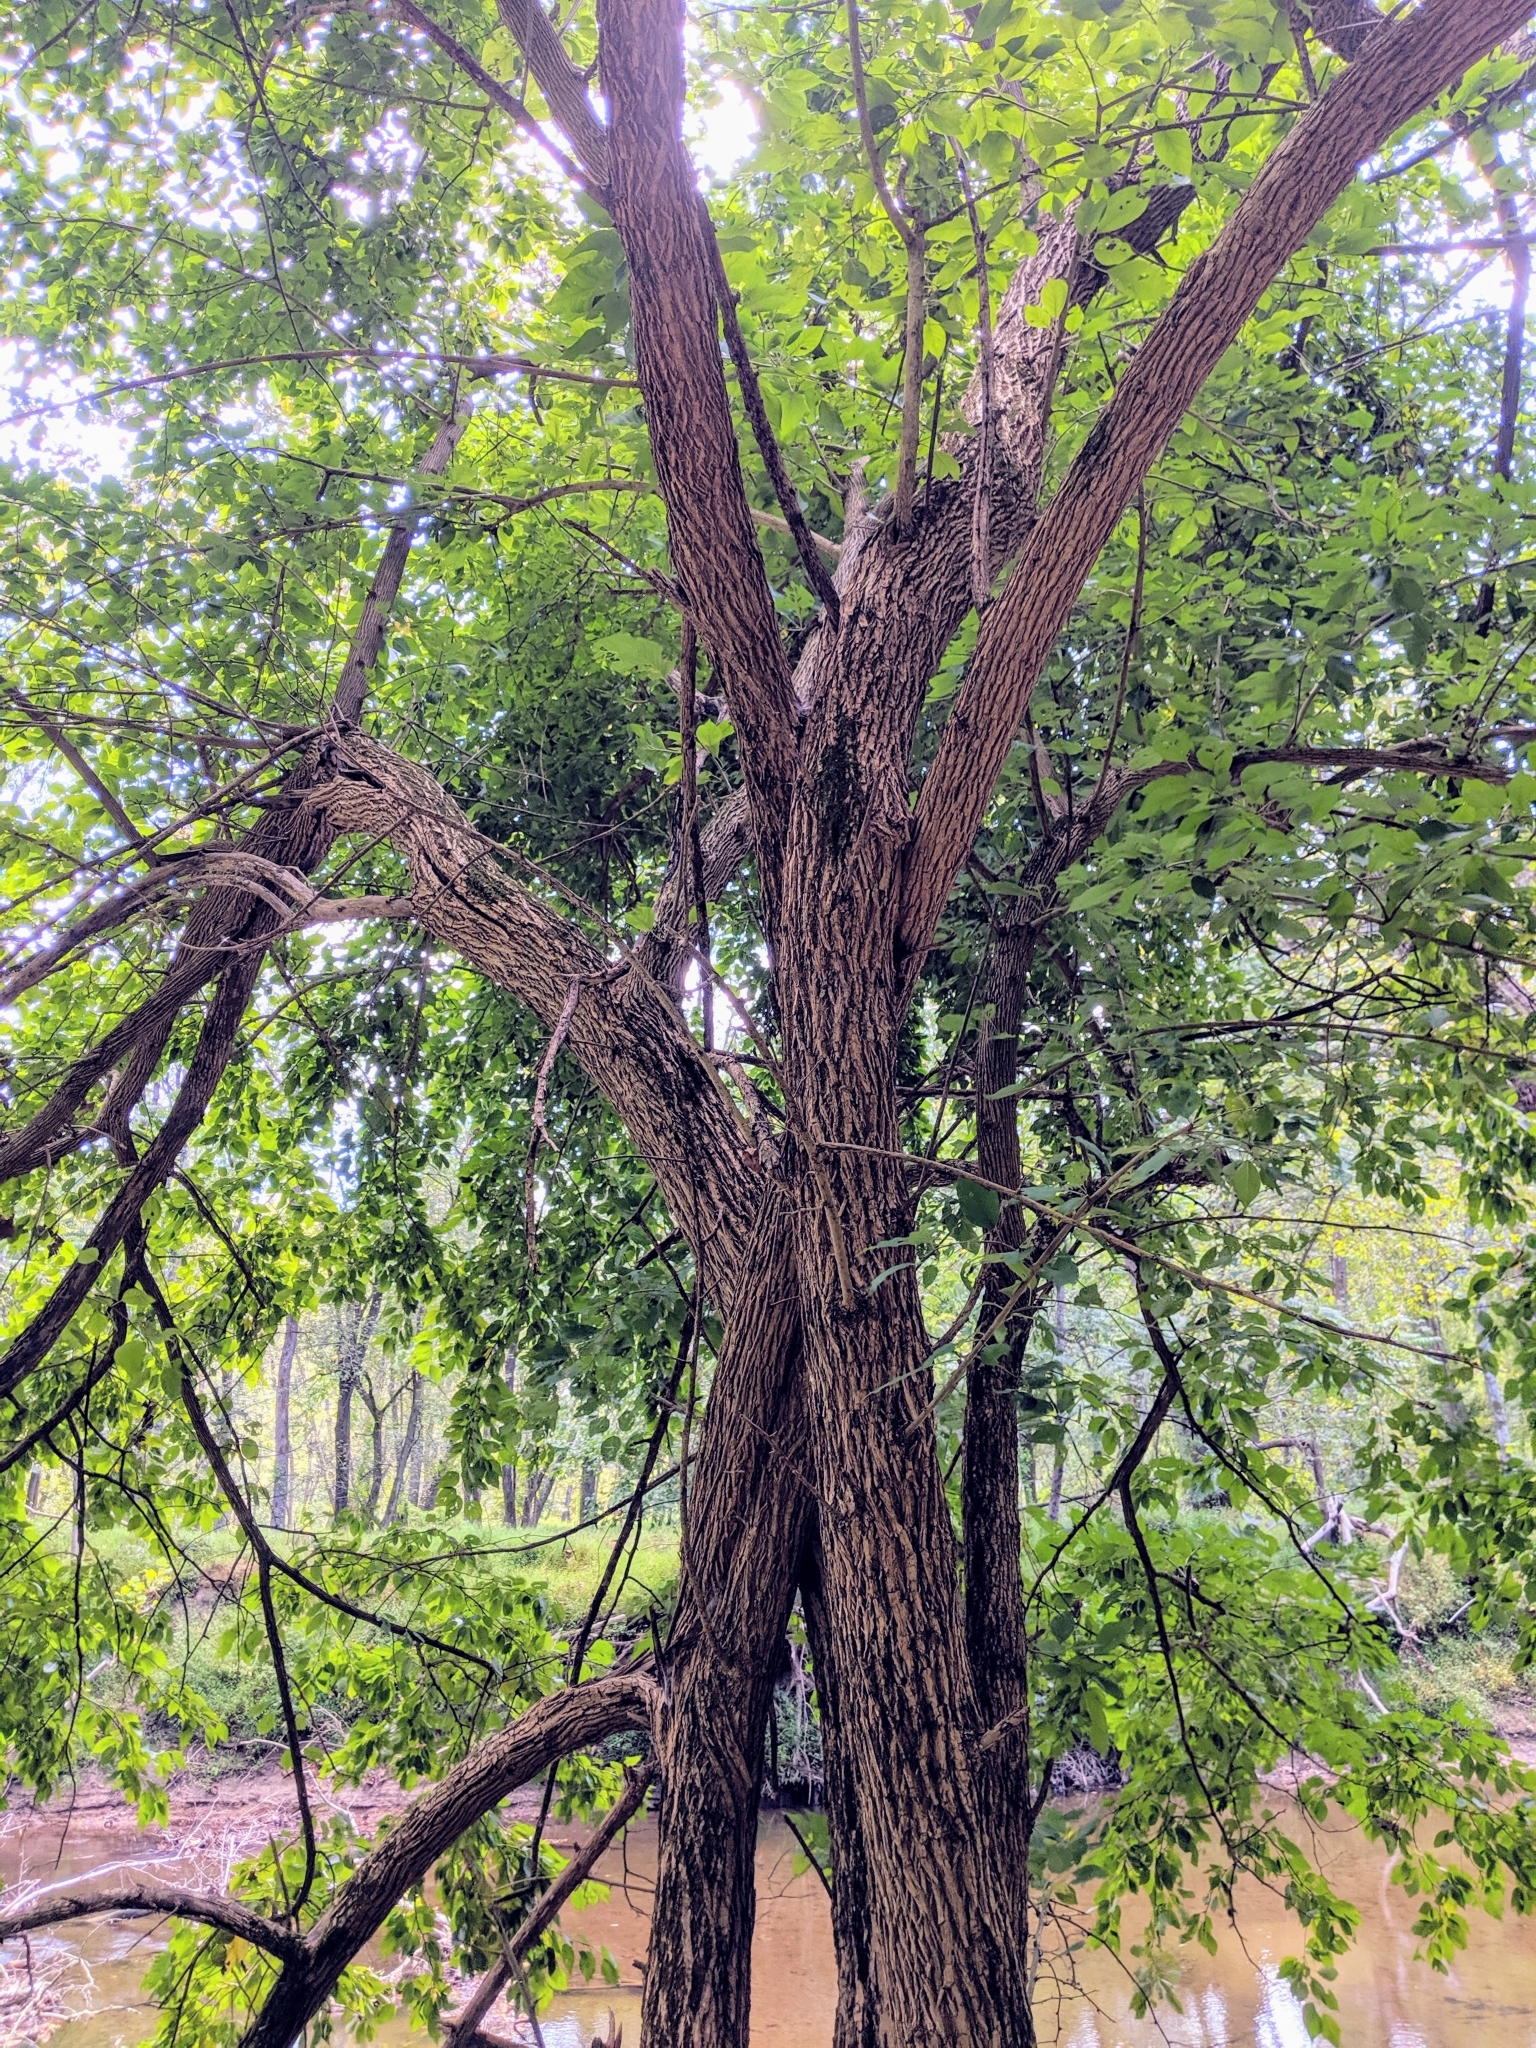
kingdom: Plantae
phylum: Tracheophyta
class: Magnoliopsida
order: Rosales
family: Moraceae
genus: Maclura
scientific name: Maclura pomifera
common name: Osage-orange
